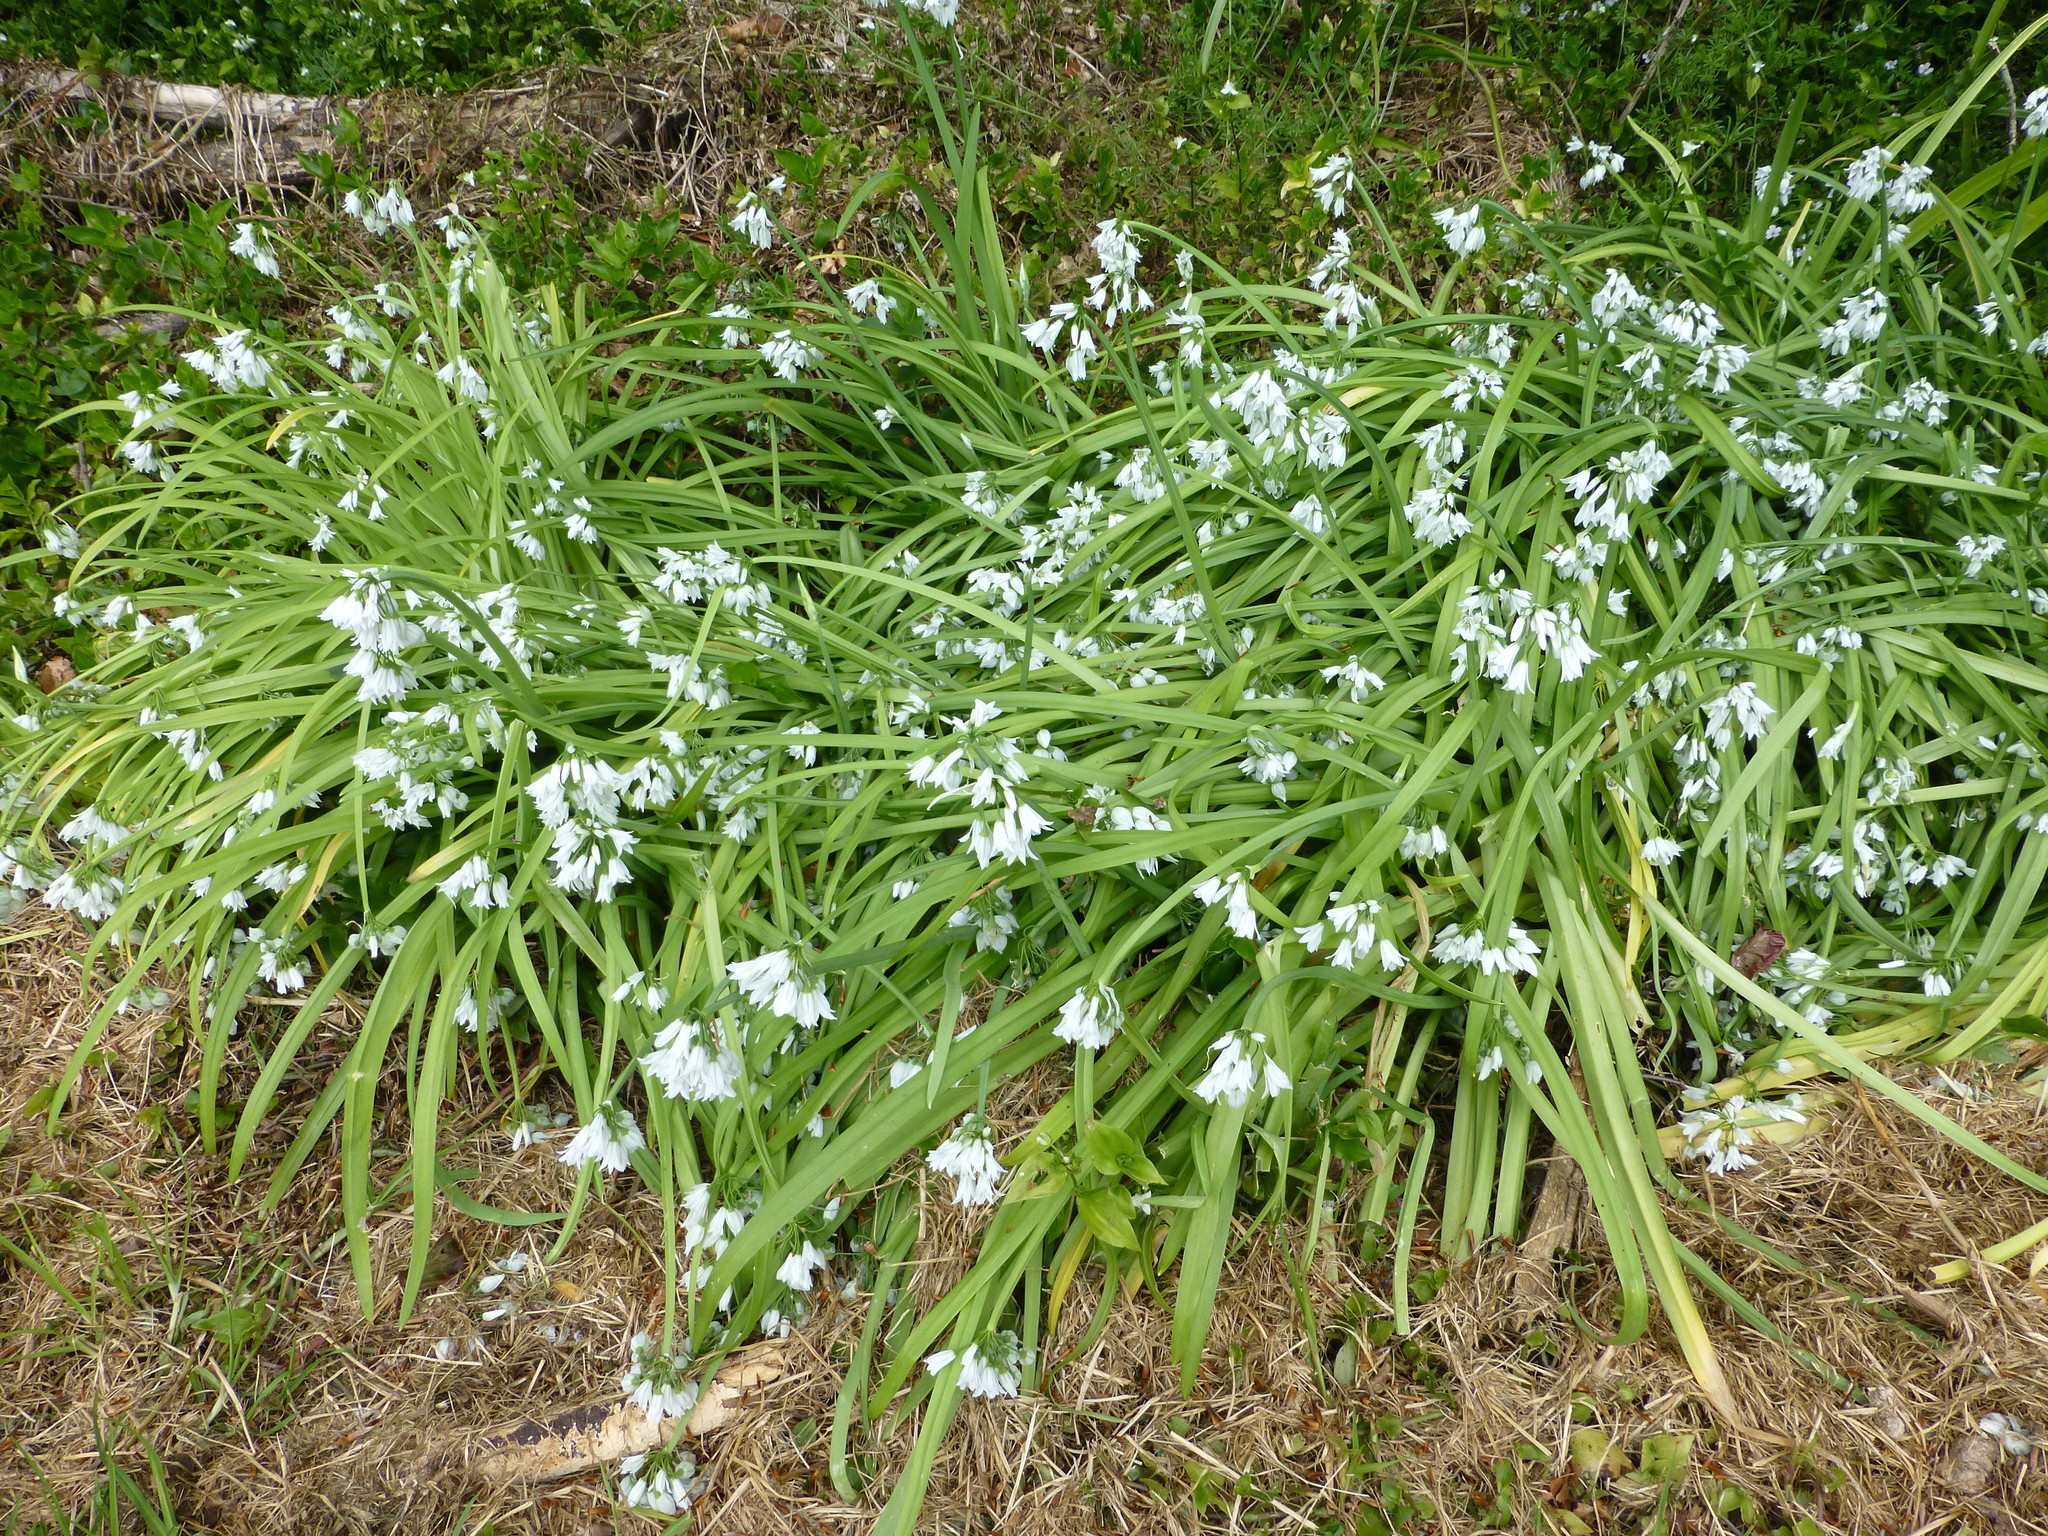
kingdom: Plantae
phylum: Tracheophyta
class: Liliopsida
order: Asparagales
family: Amaryllidaceae
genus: Allium
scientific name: Allium triquetrum
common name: Three-cornered garlic
